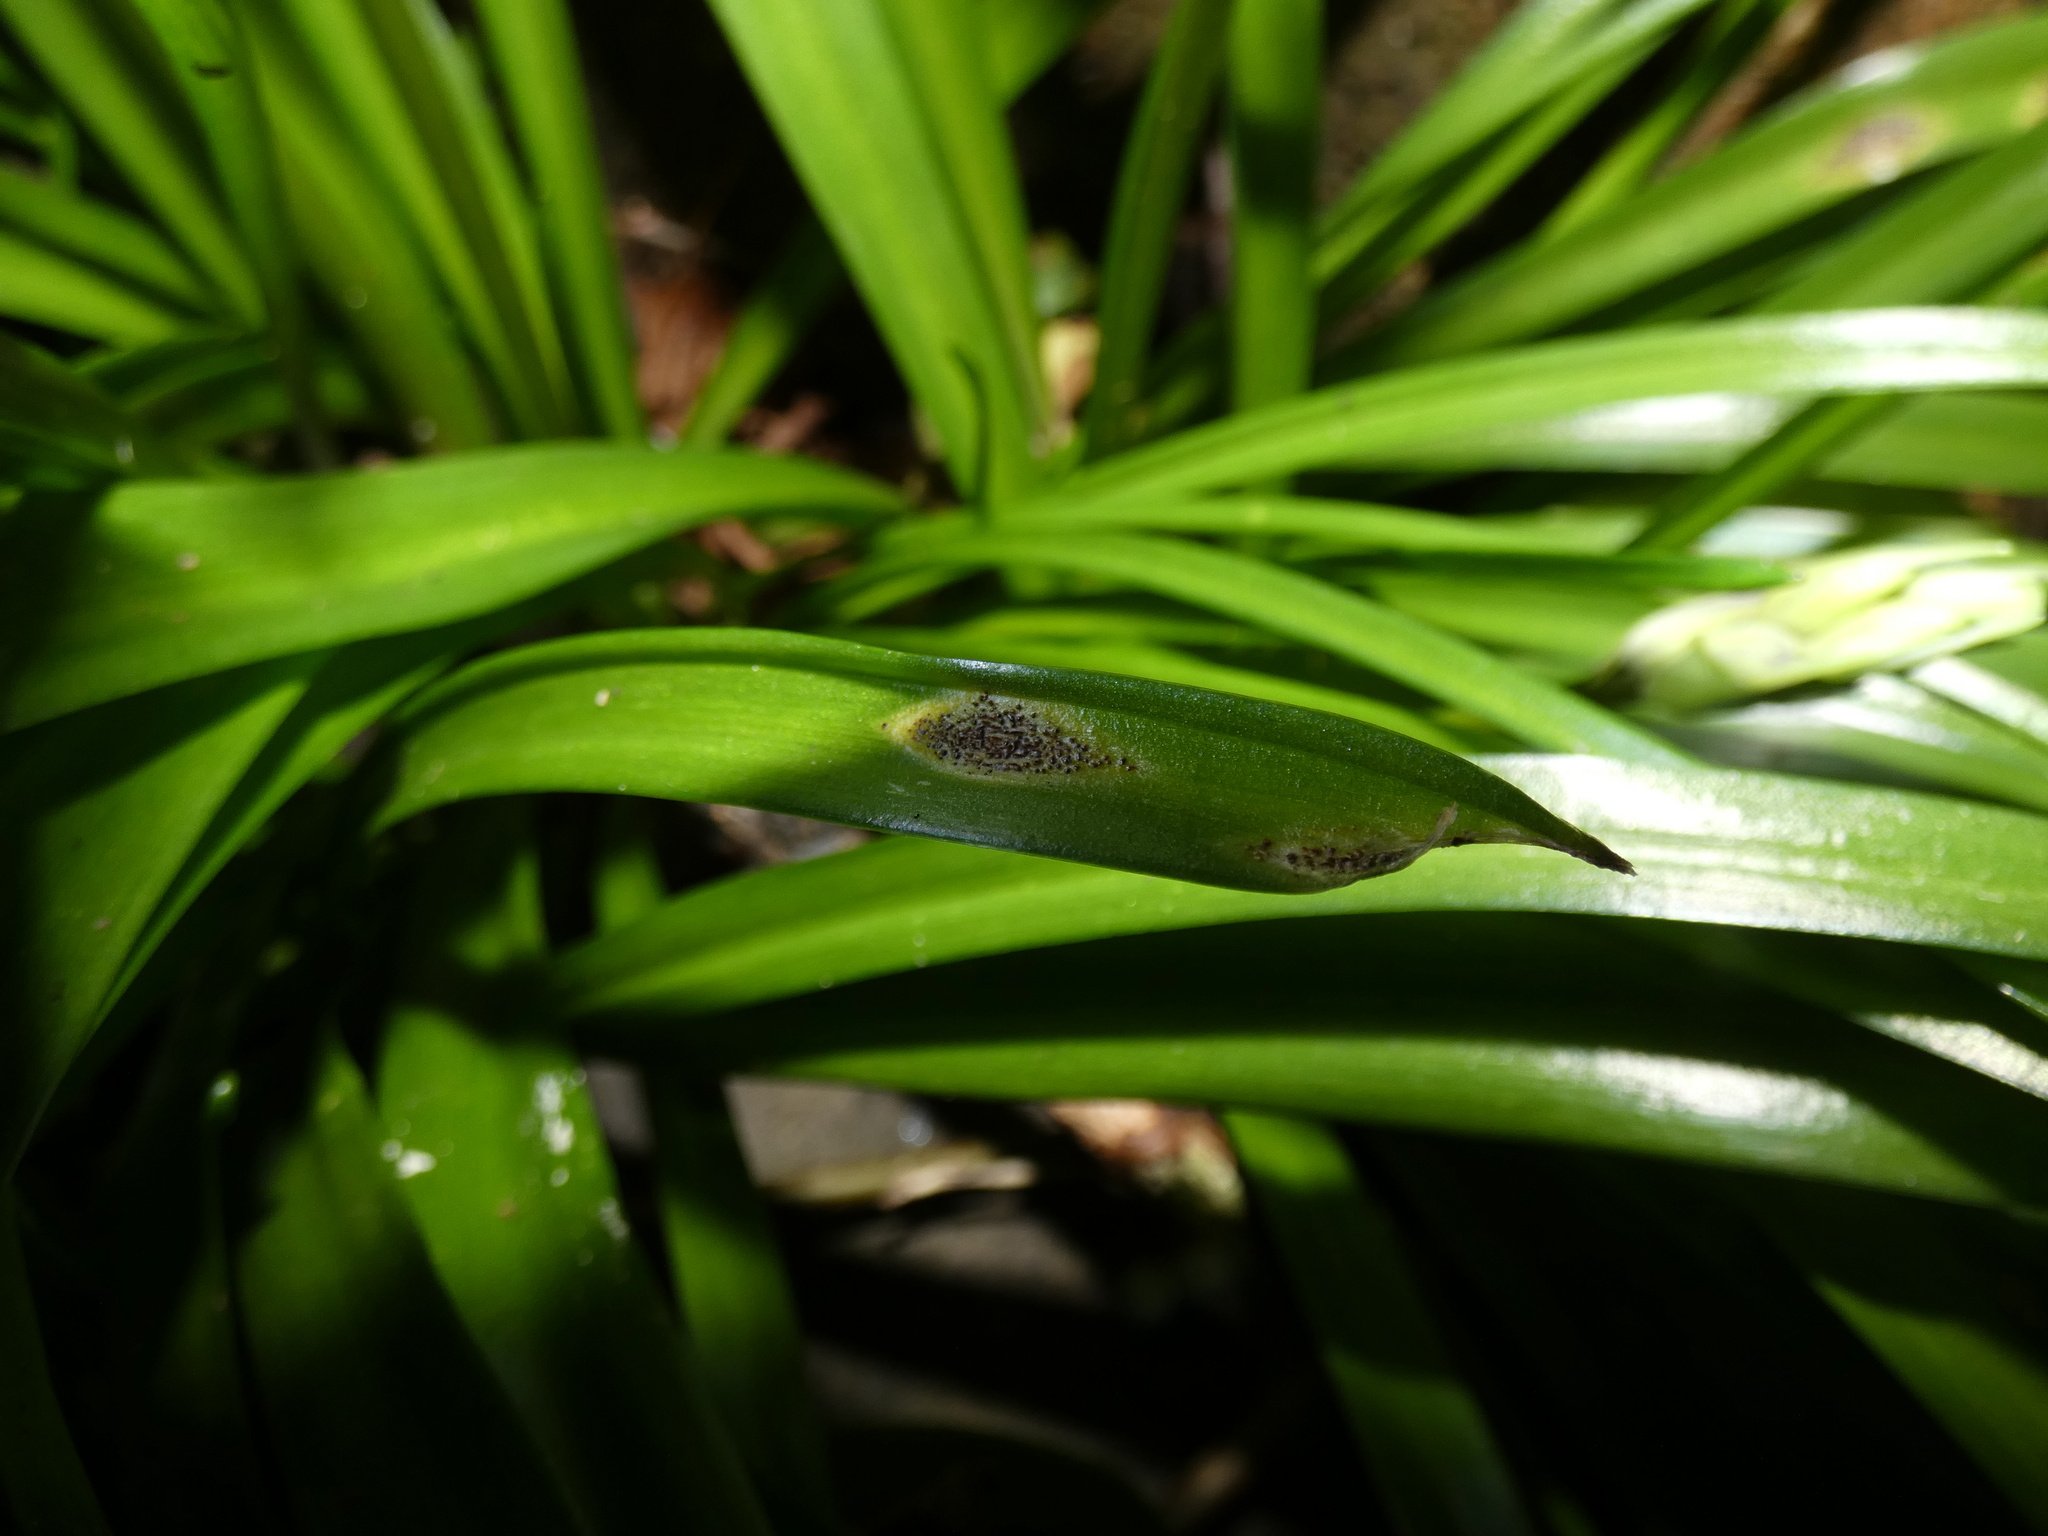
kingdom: Fungi
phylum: Basidiomycota
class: Pucciniomycetes
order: Pucciniales
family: Pucciniaceae
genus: Uromyces
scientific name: Uromyces hyacinthi
